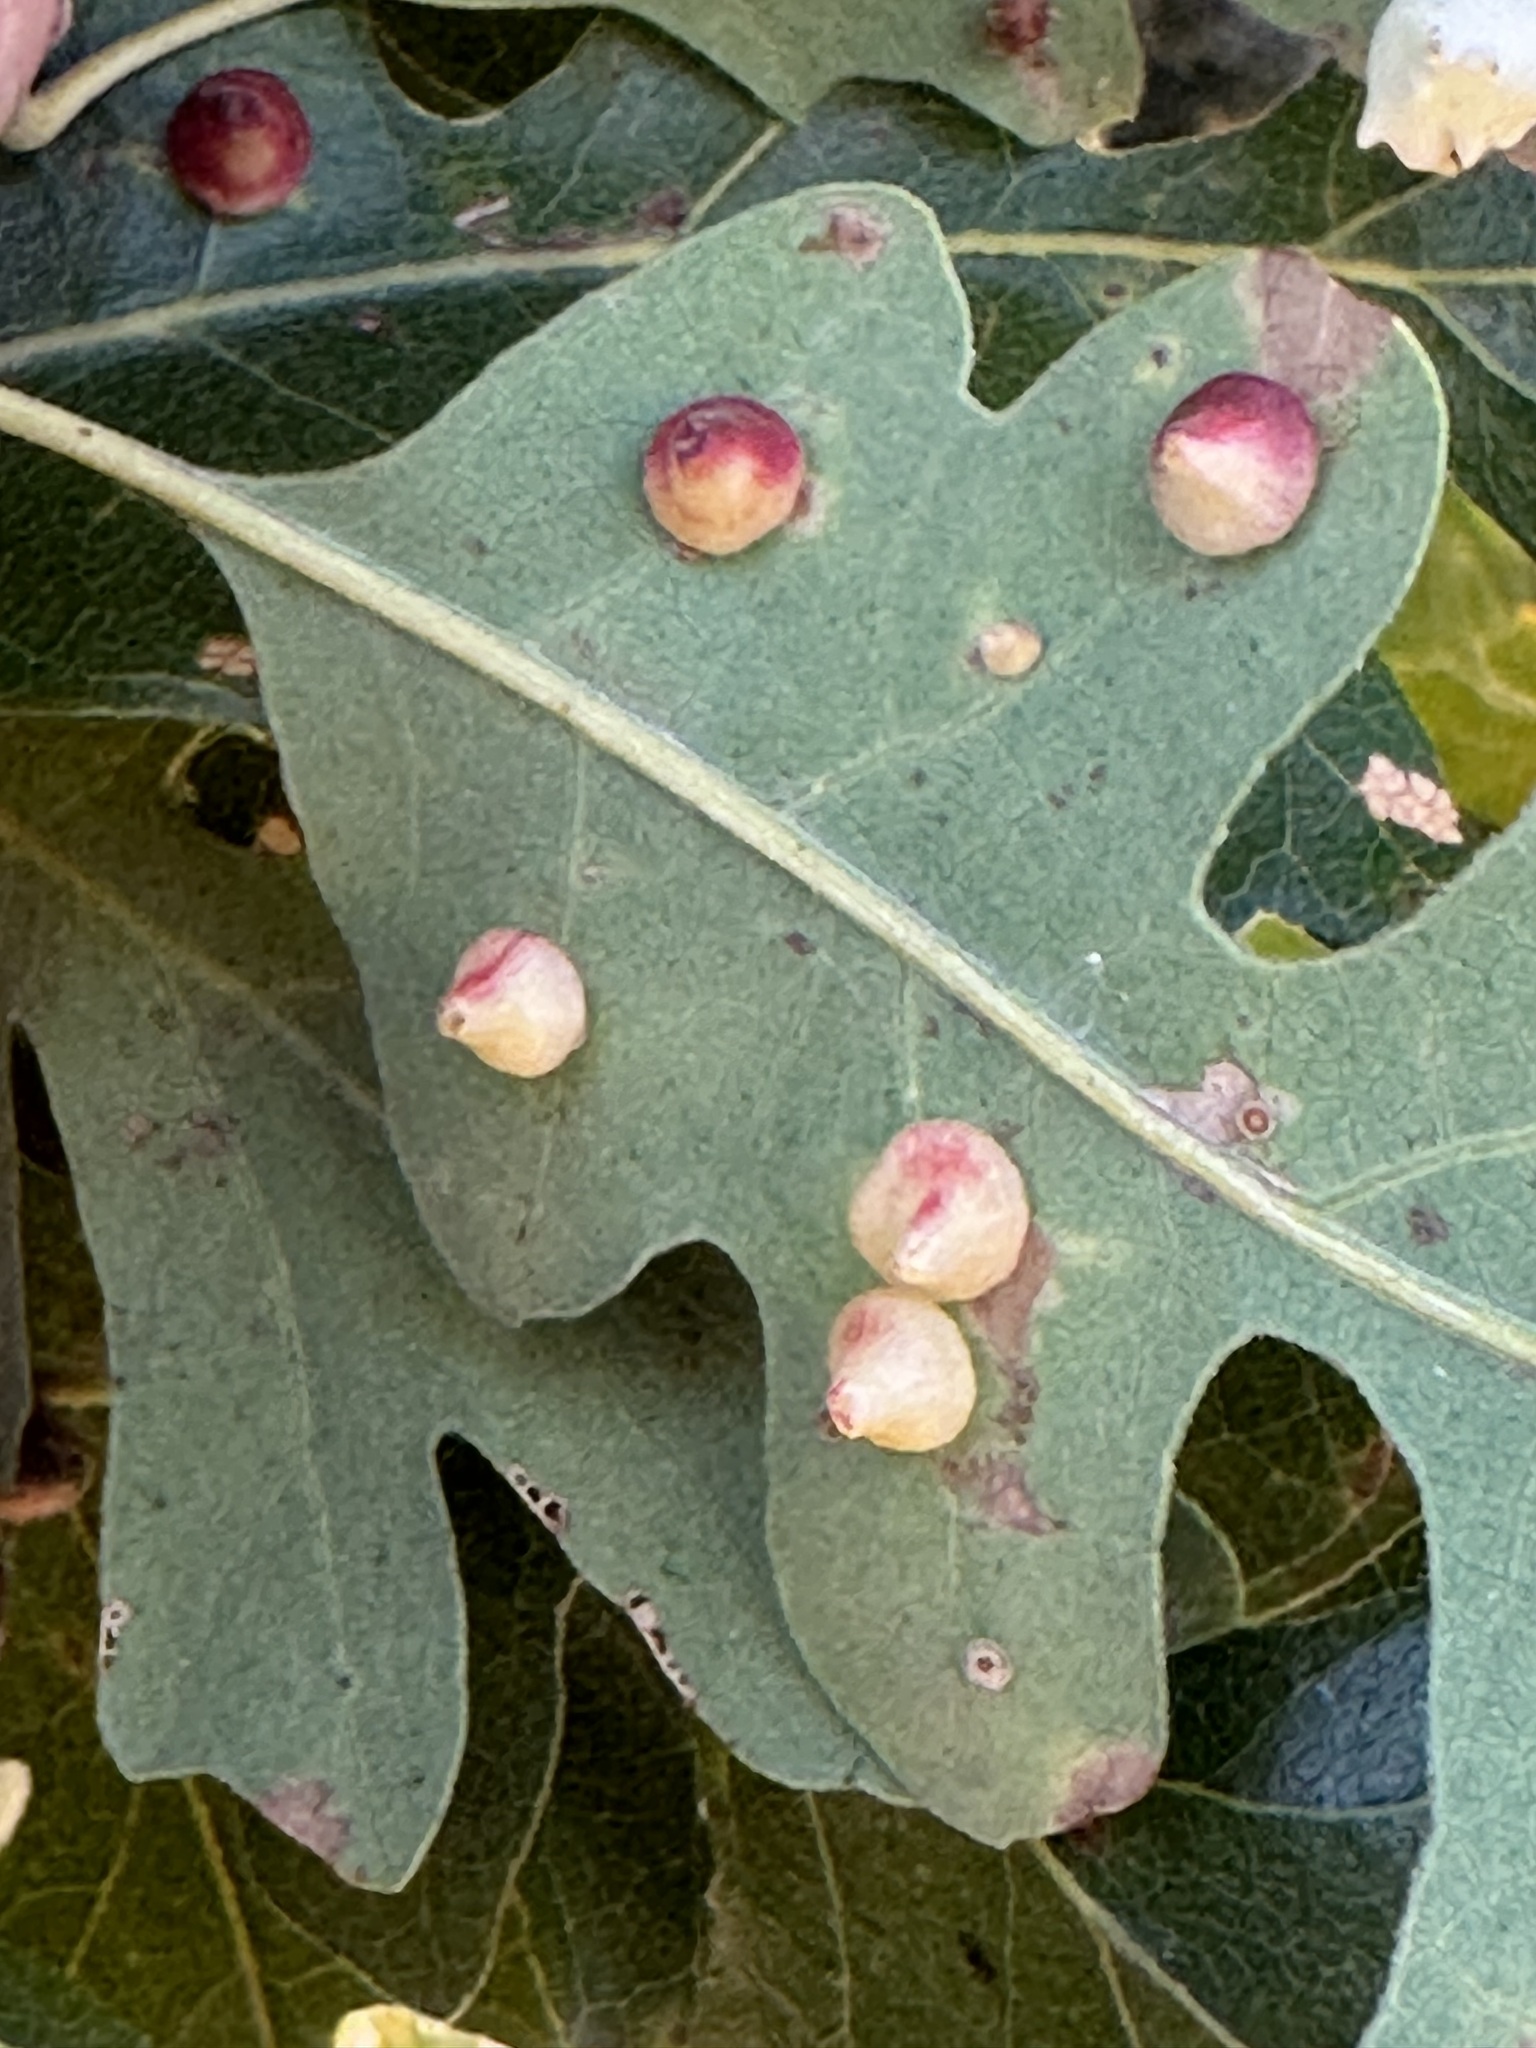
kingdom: Animalia
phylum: Arthropoda
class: Insecta
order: Hymenoptera
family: Cynipidae
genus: Andricus
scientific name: Andricus
